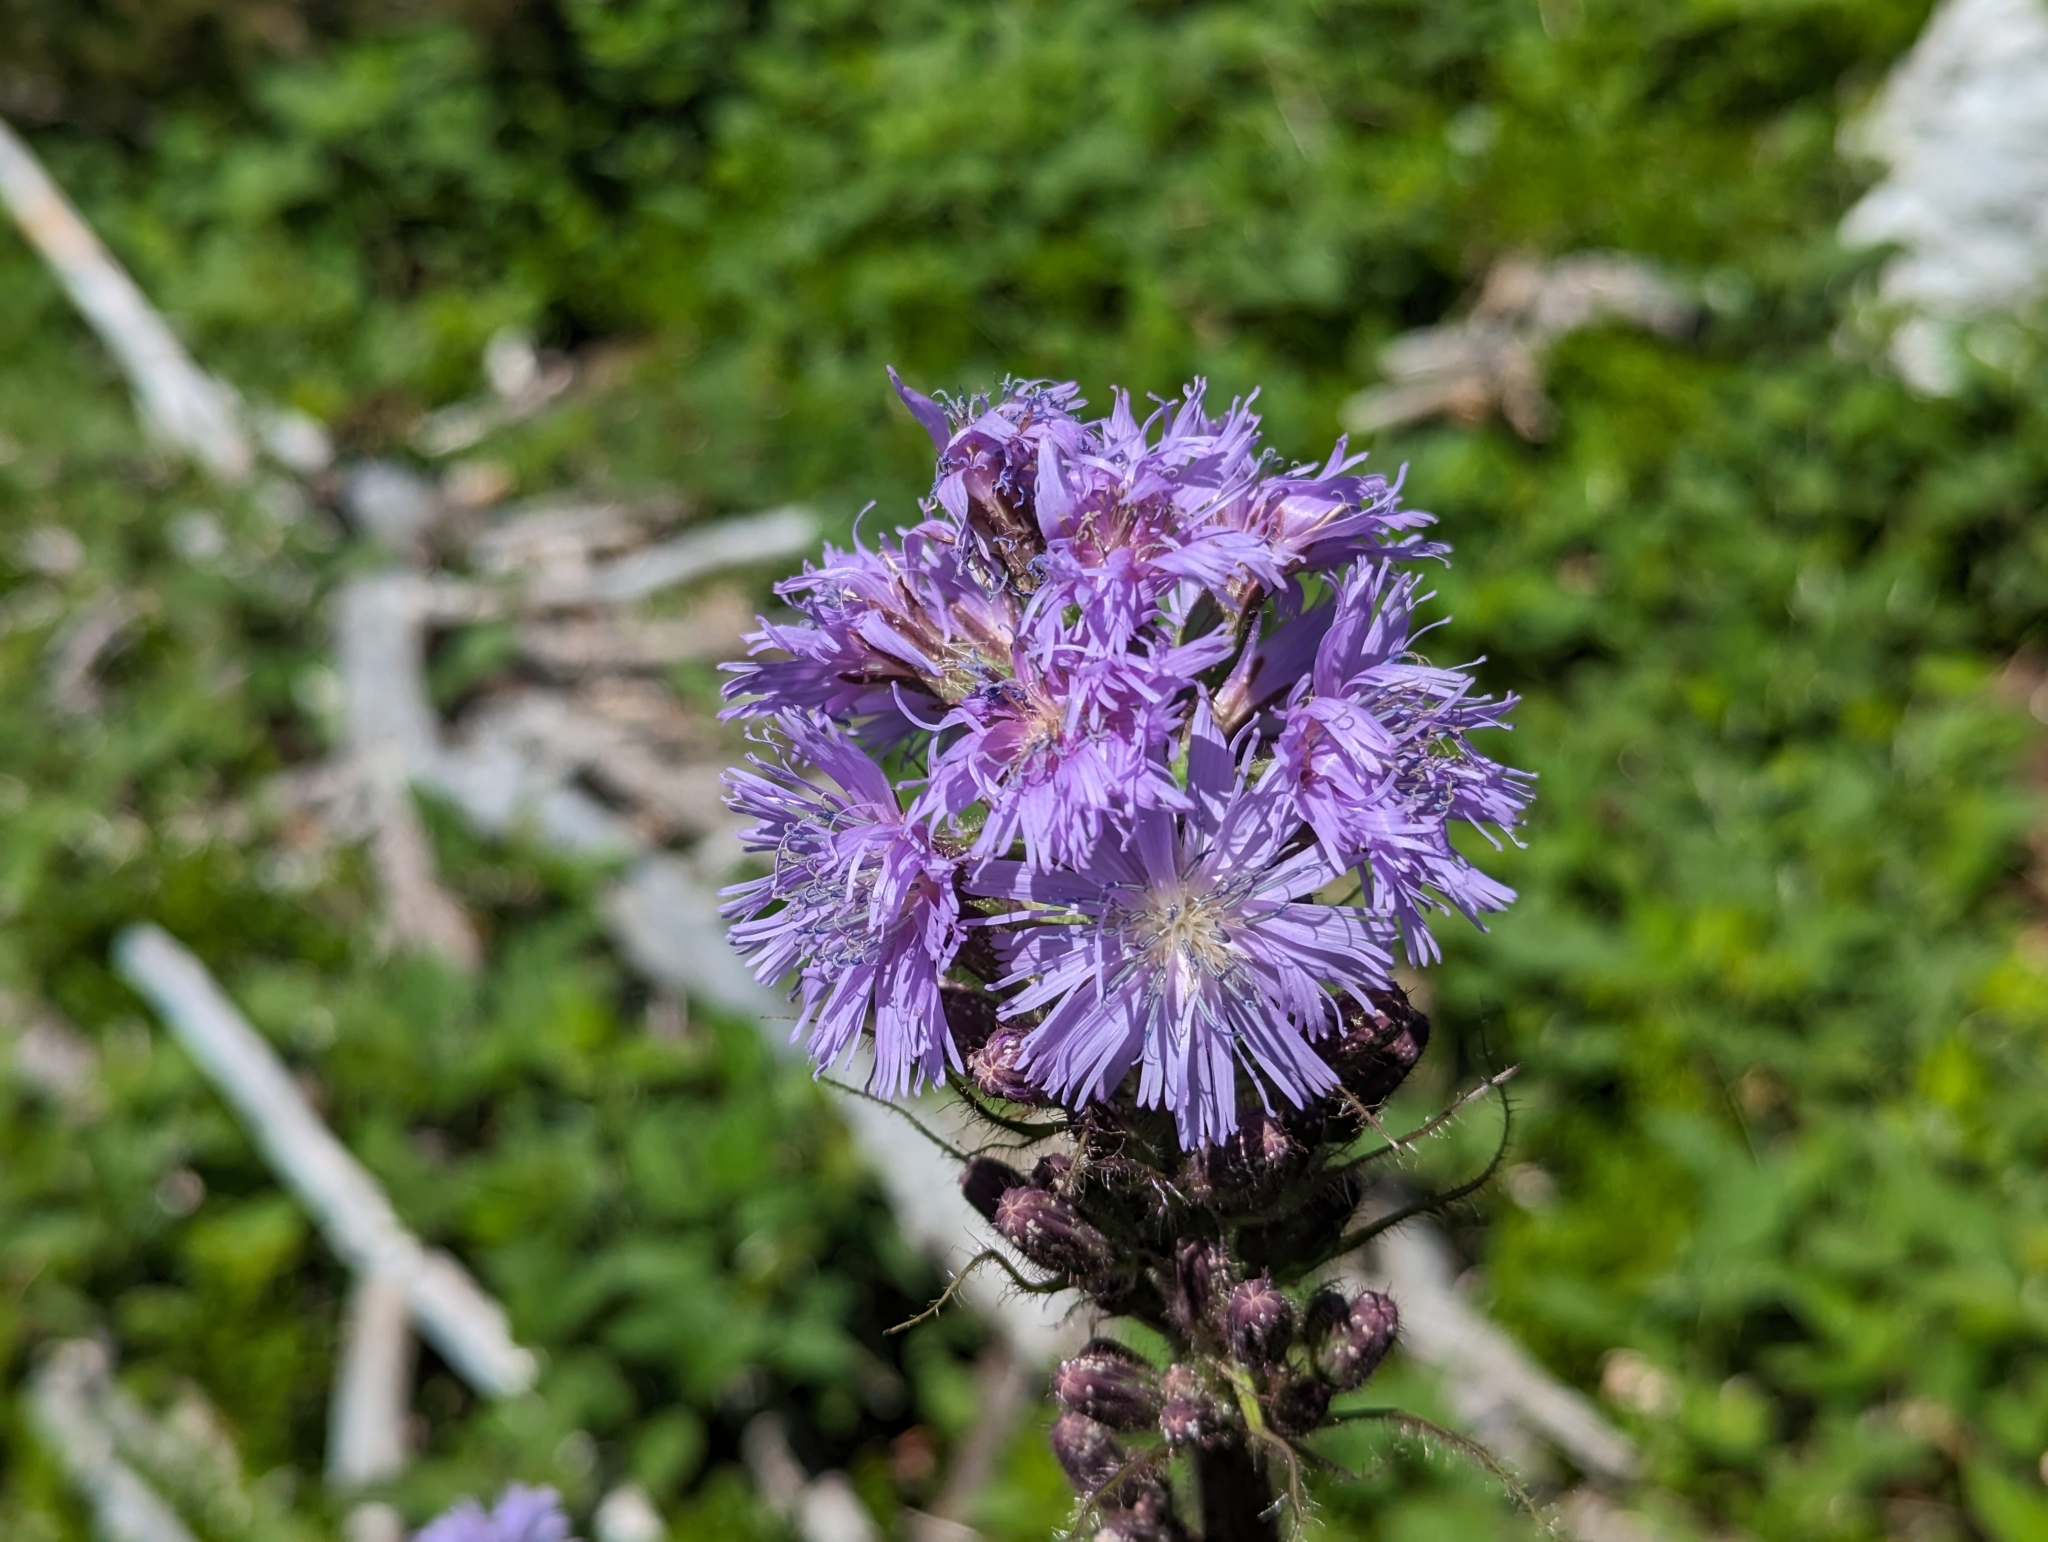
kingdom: Plantae
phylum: Tracheophyta
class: Magnoliopsida
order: Asterales
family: Asteraceae
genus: Cicerbita
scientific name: Cicerbita alpina
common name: Alpine blue-sow-thistle
